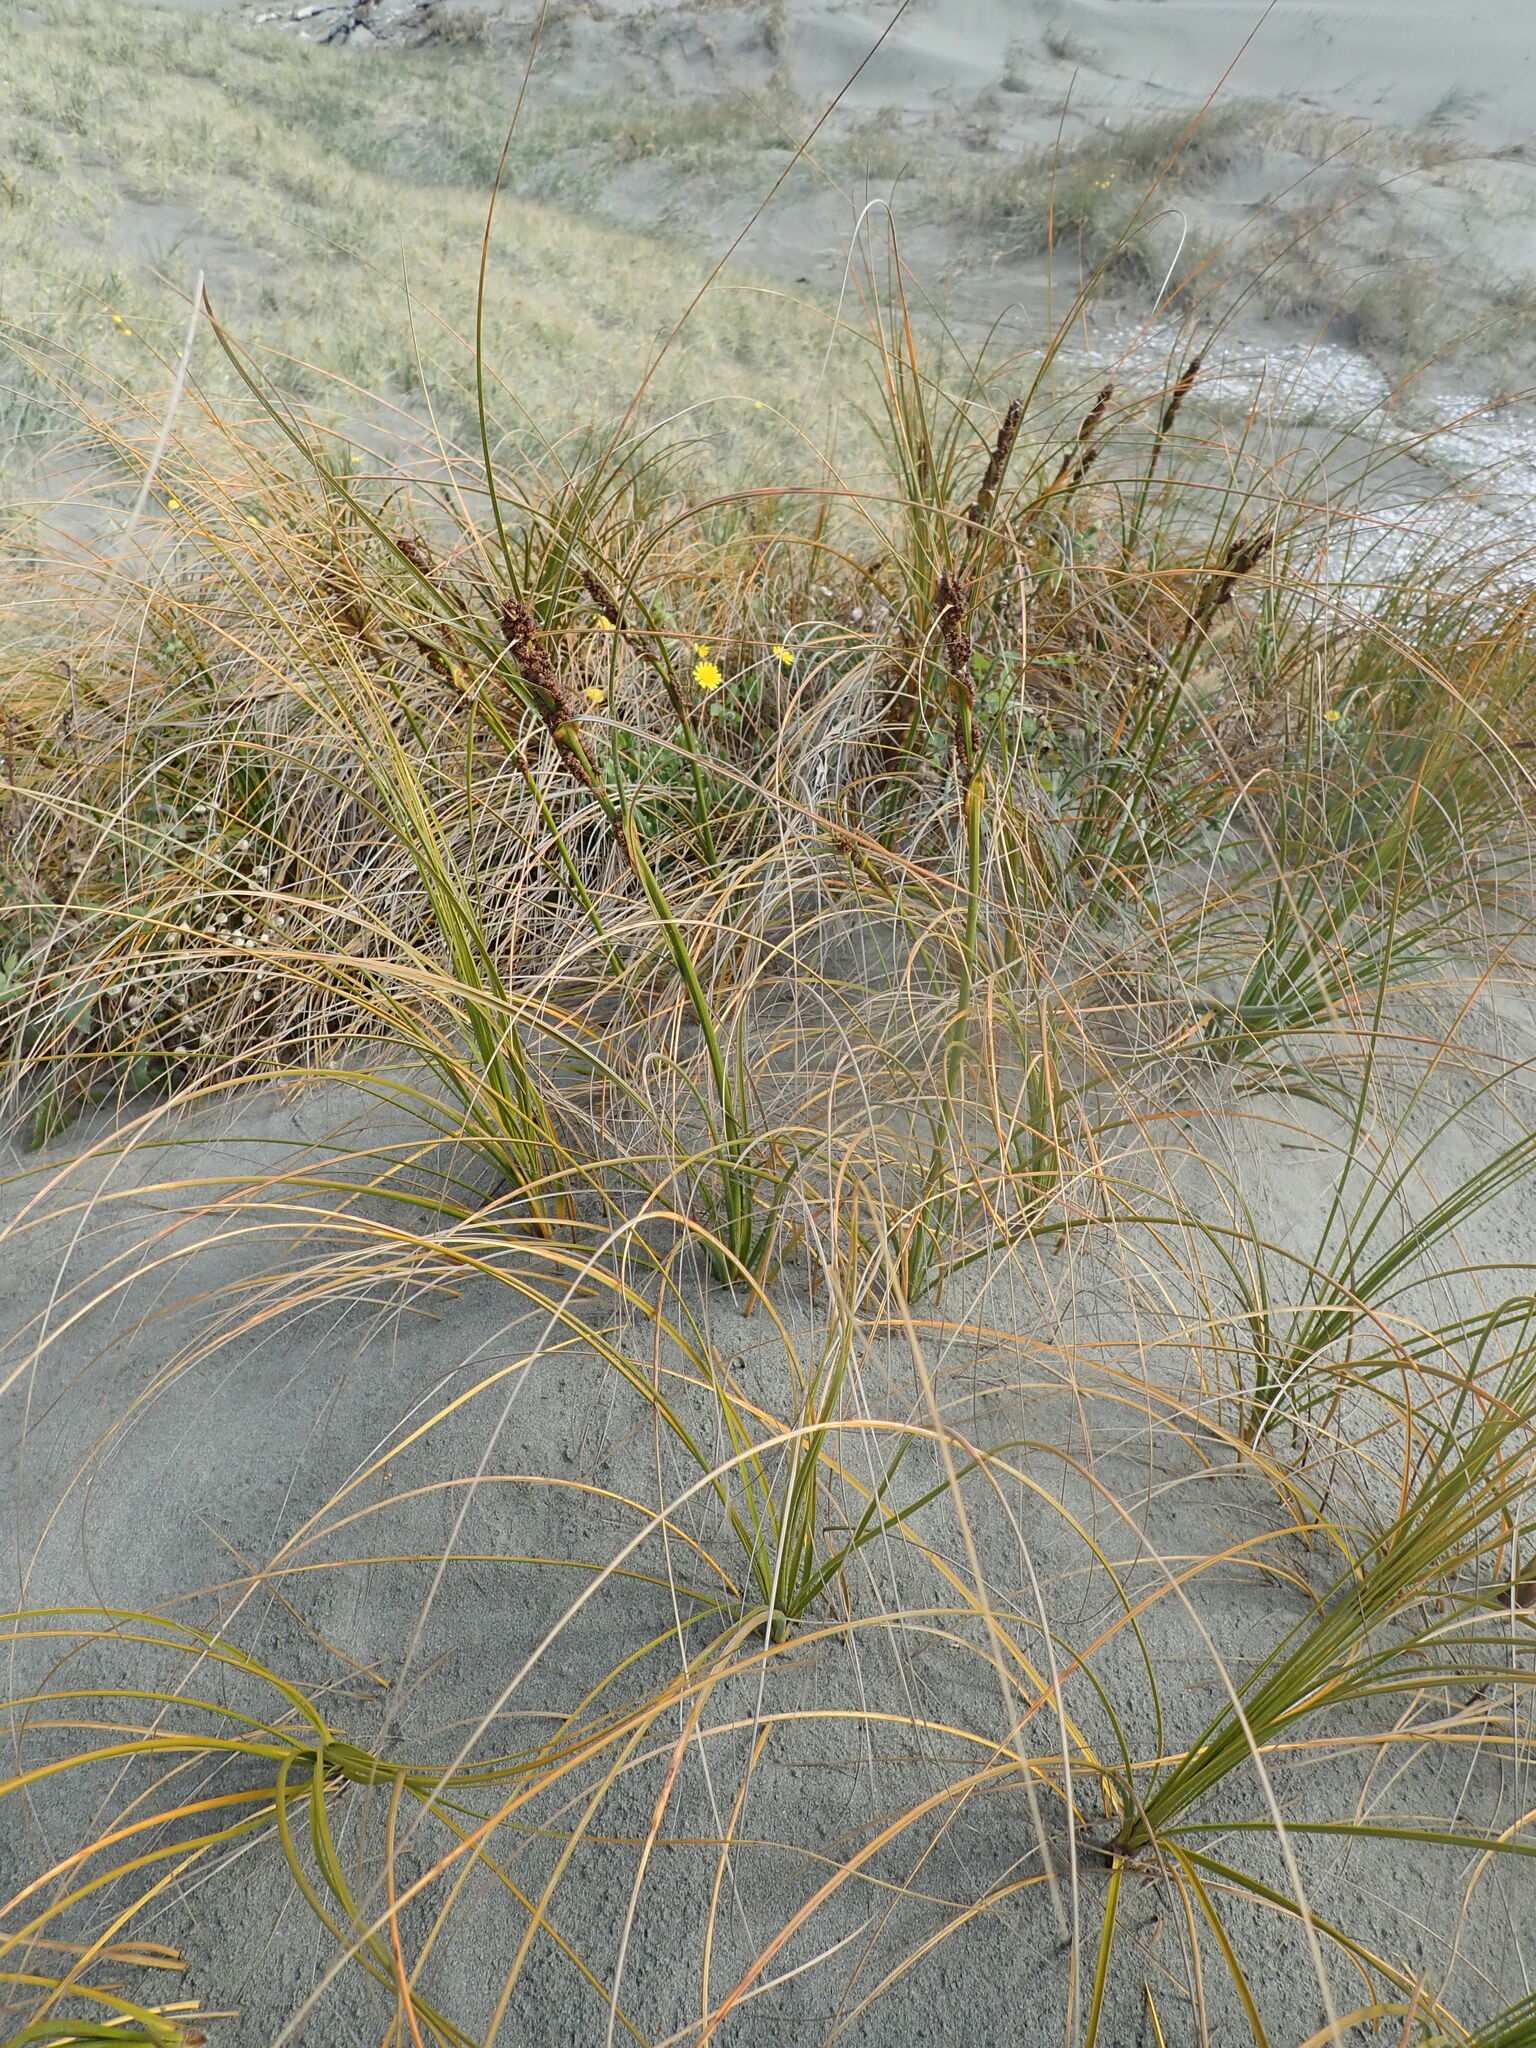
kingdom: Plantae
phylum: Tracheophyta
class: Liliopsida
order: Poales
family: Cyperaceae
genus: Ficinia
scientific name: Ficinia spiralis
